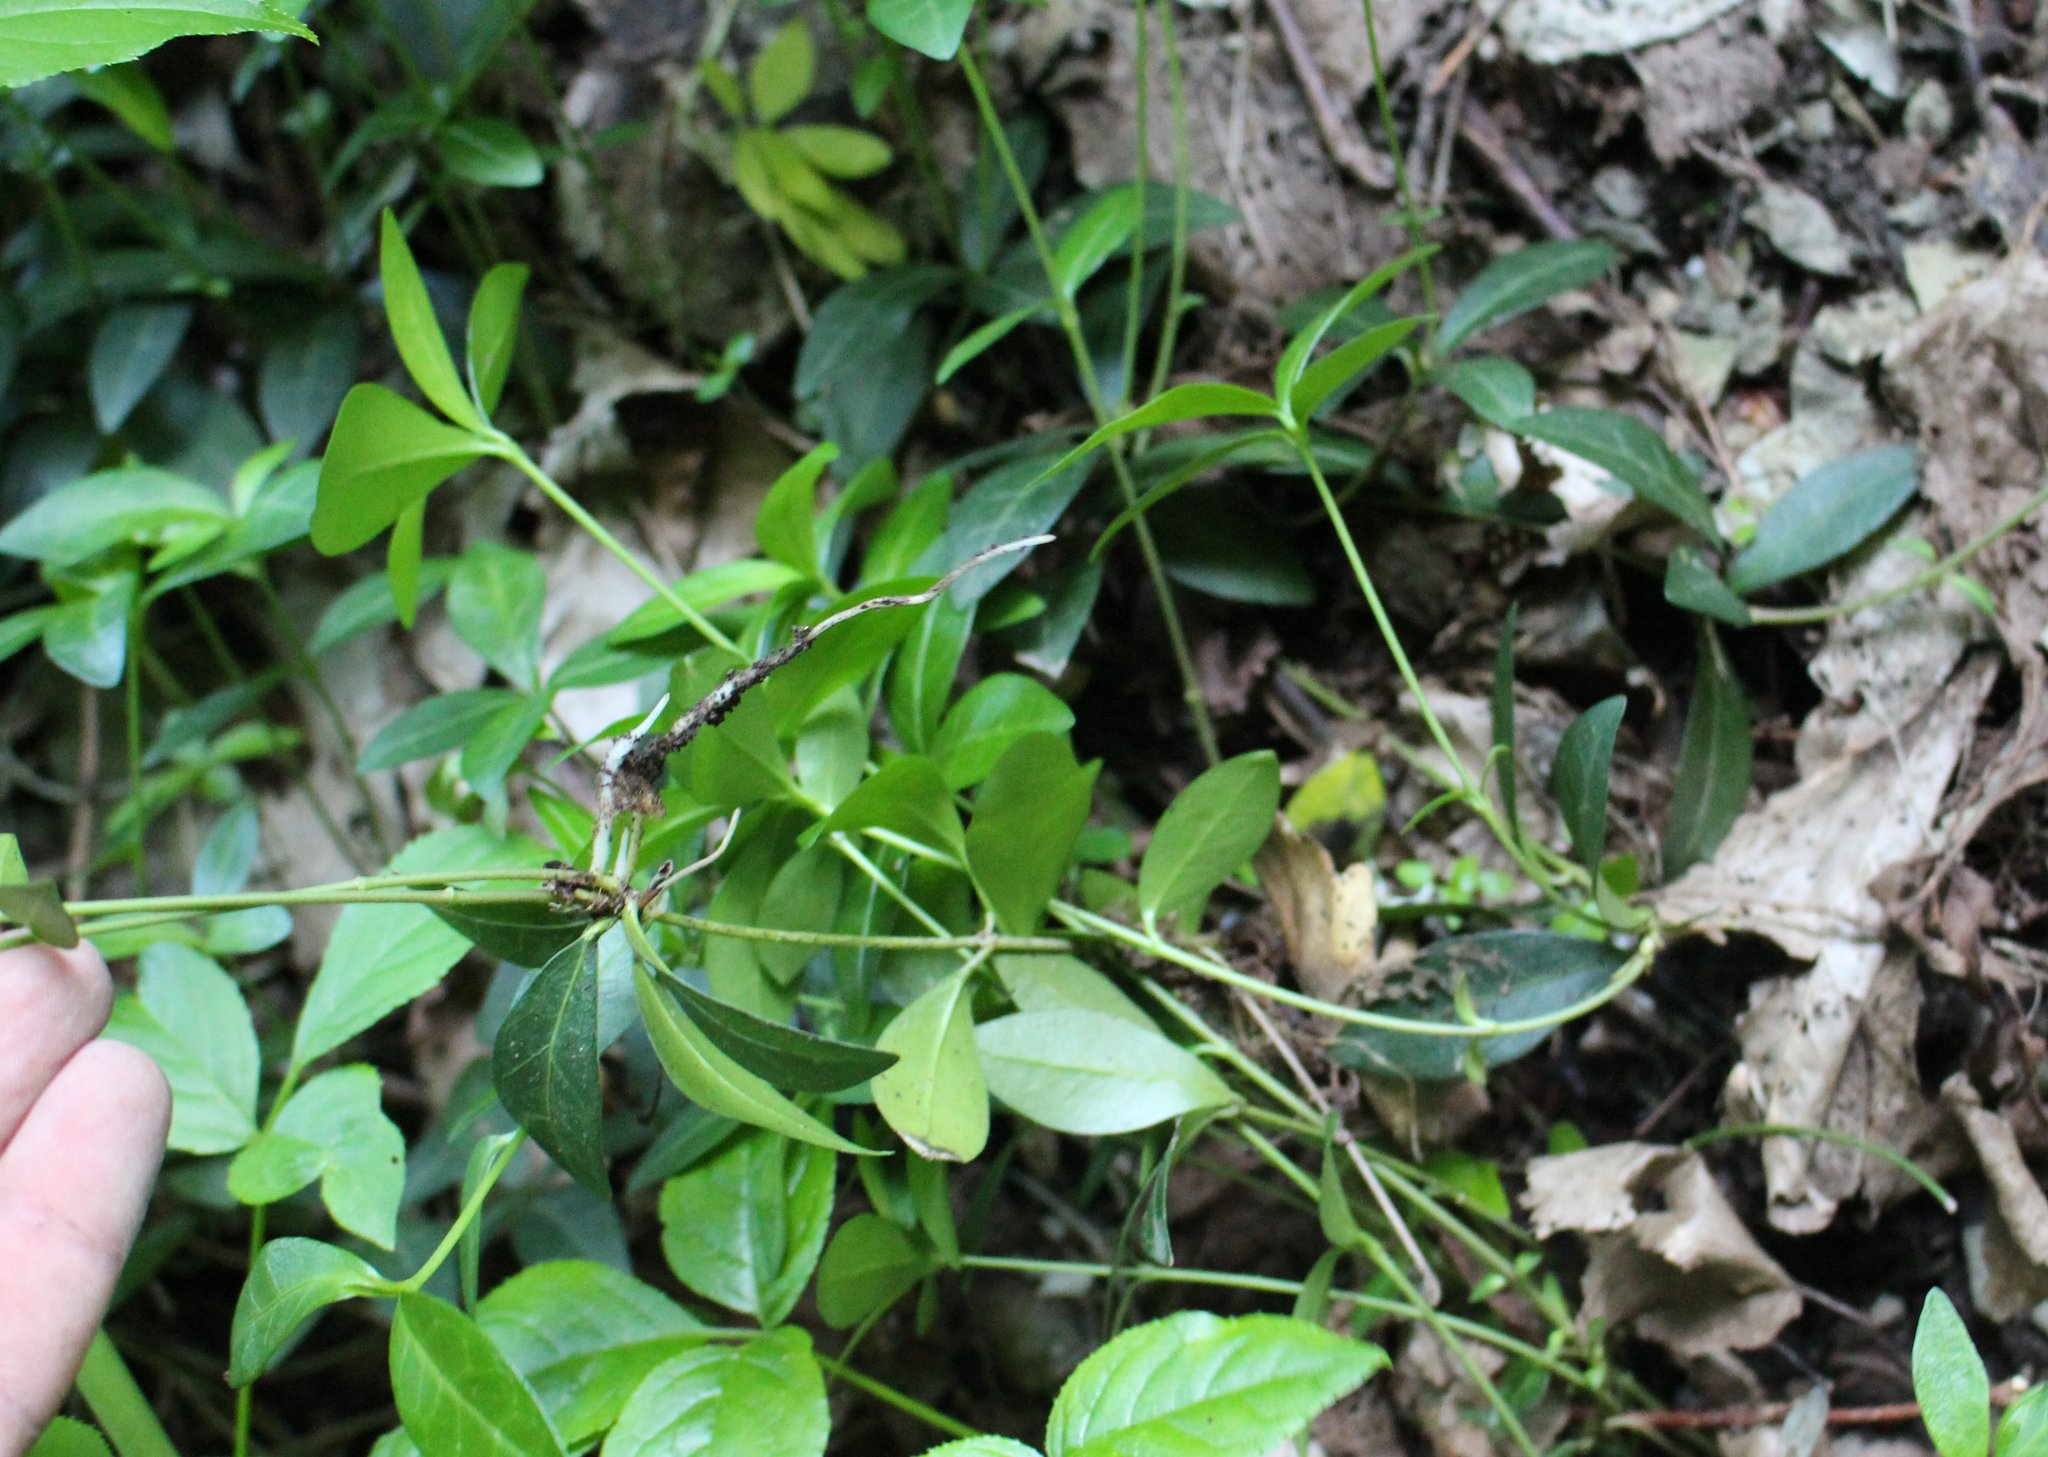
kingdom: Plantae
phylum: Tracheophyta
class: Magnoliopsida
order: Gentianales
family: Apocynaceae
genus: Vinca
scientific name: Vinca minor
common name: Lesser periwinkle
